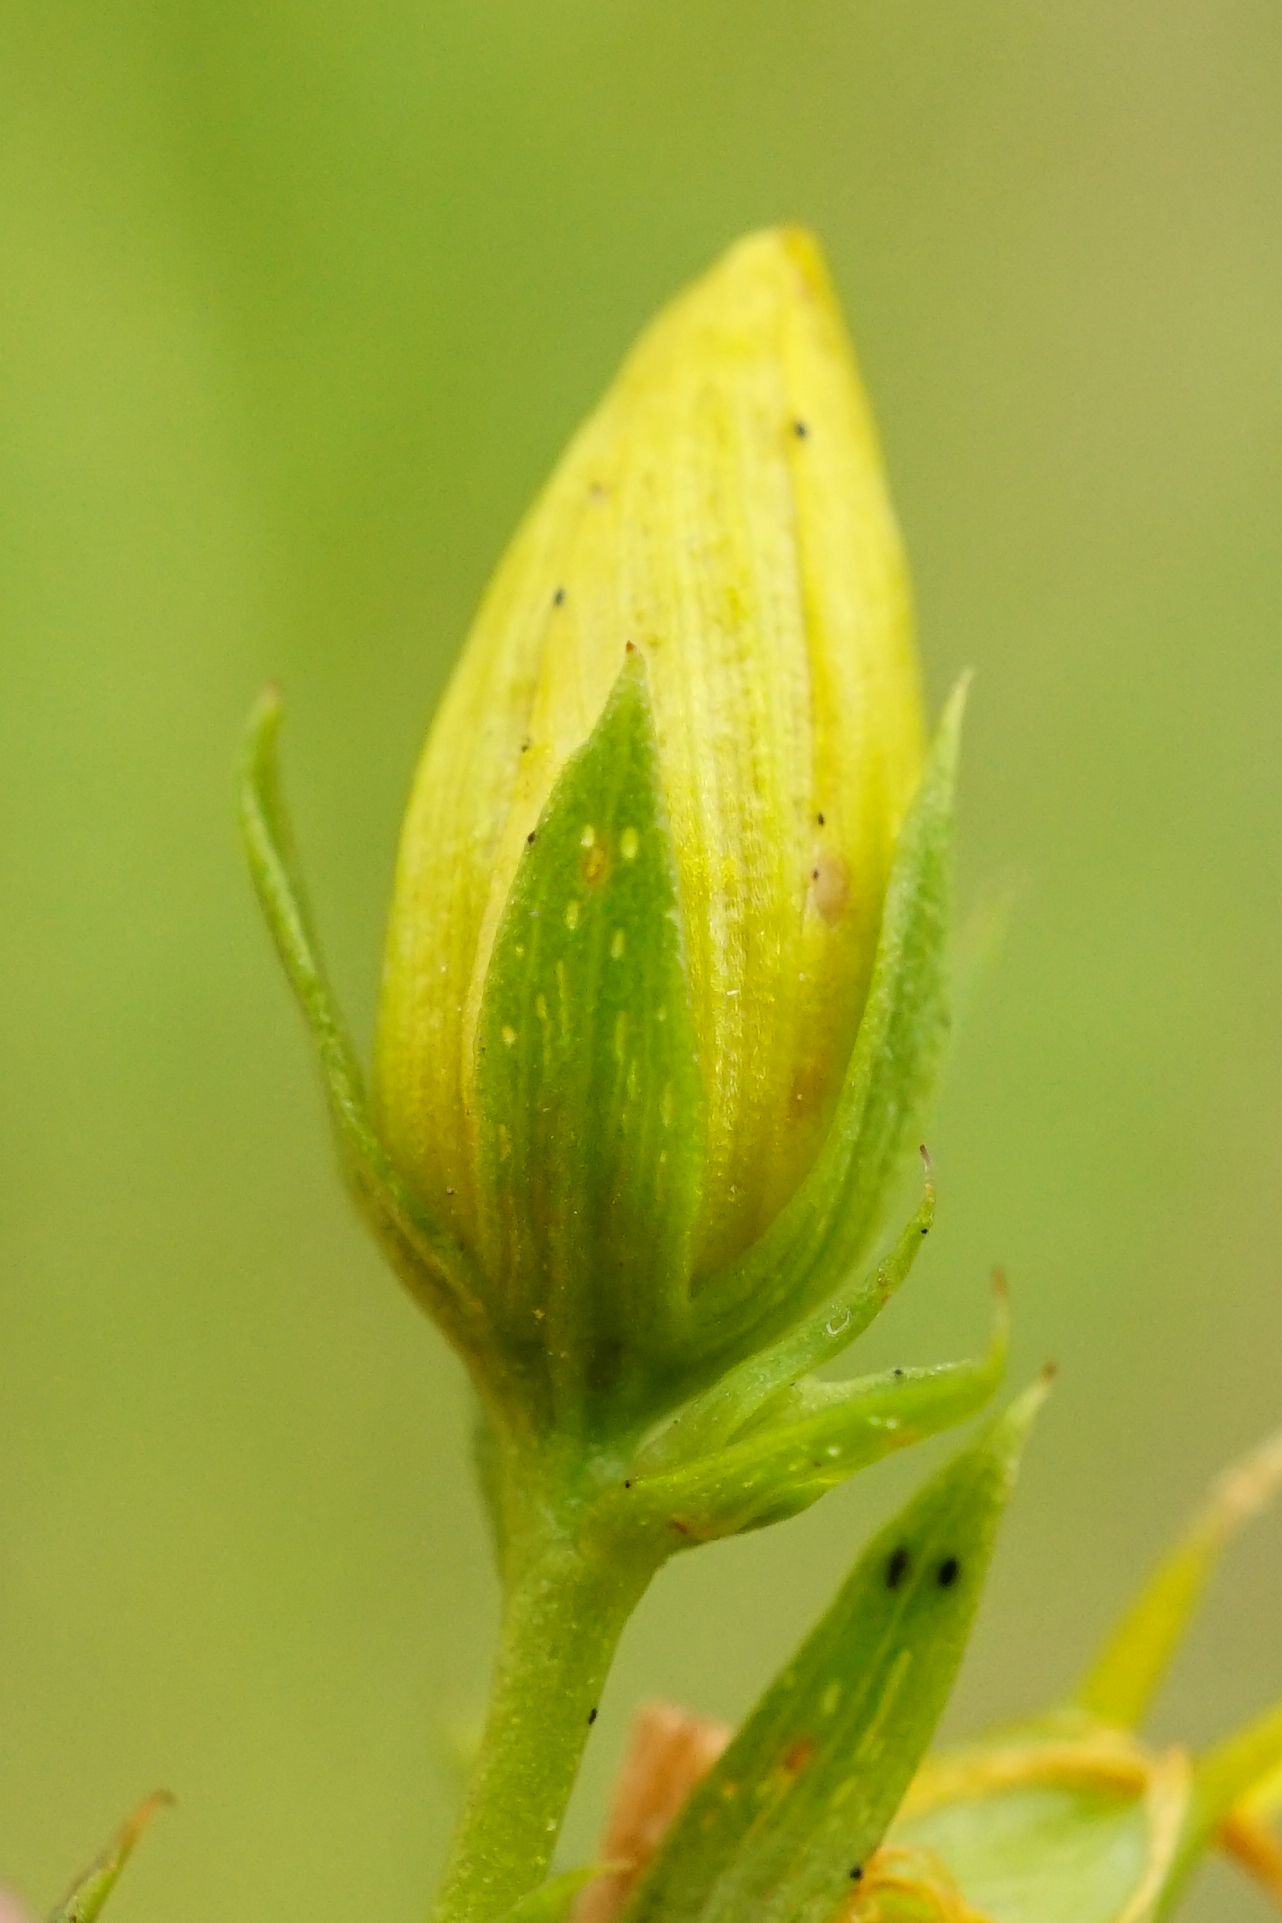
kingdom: Plantae
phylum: Tracheophyta
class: Magnoliopsida
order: Malpighiales
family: Hypericaceae
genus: Hypericum
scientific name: Hypericum perforatum
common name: Common st. johnswort
